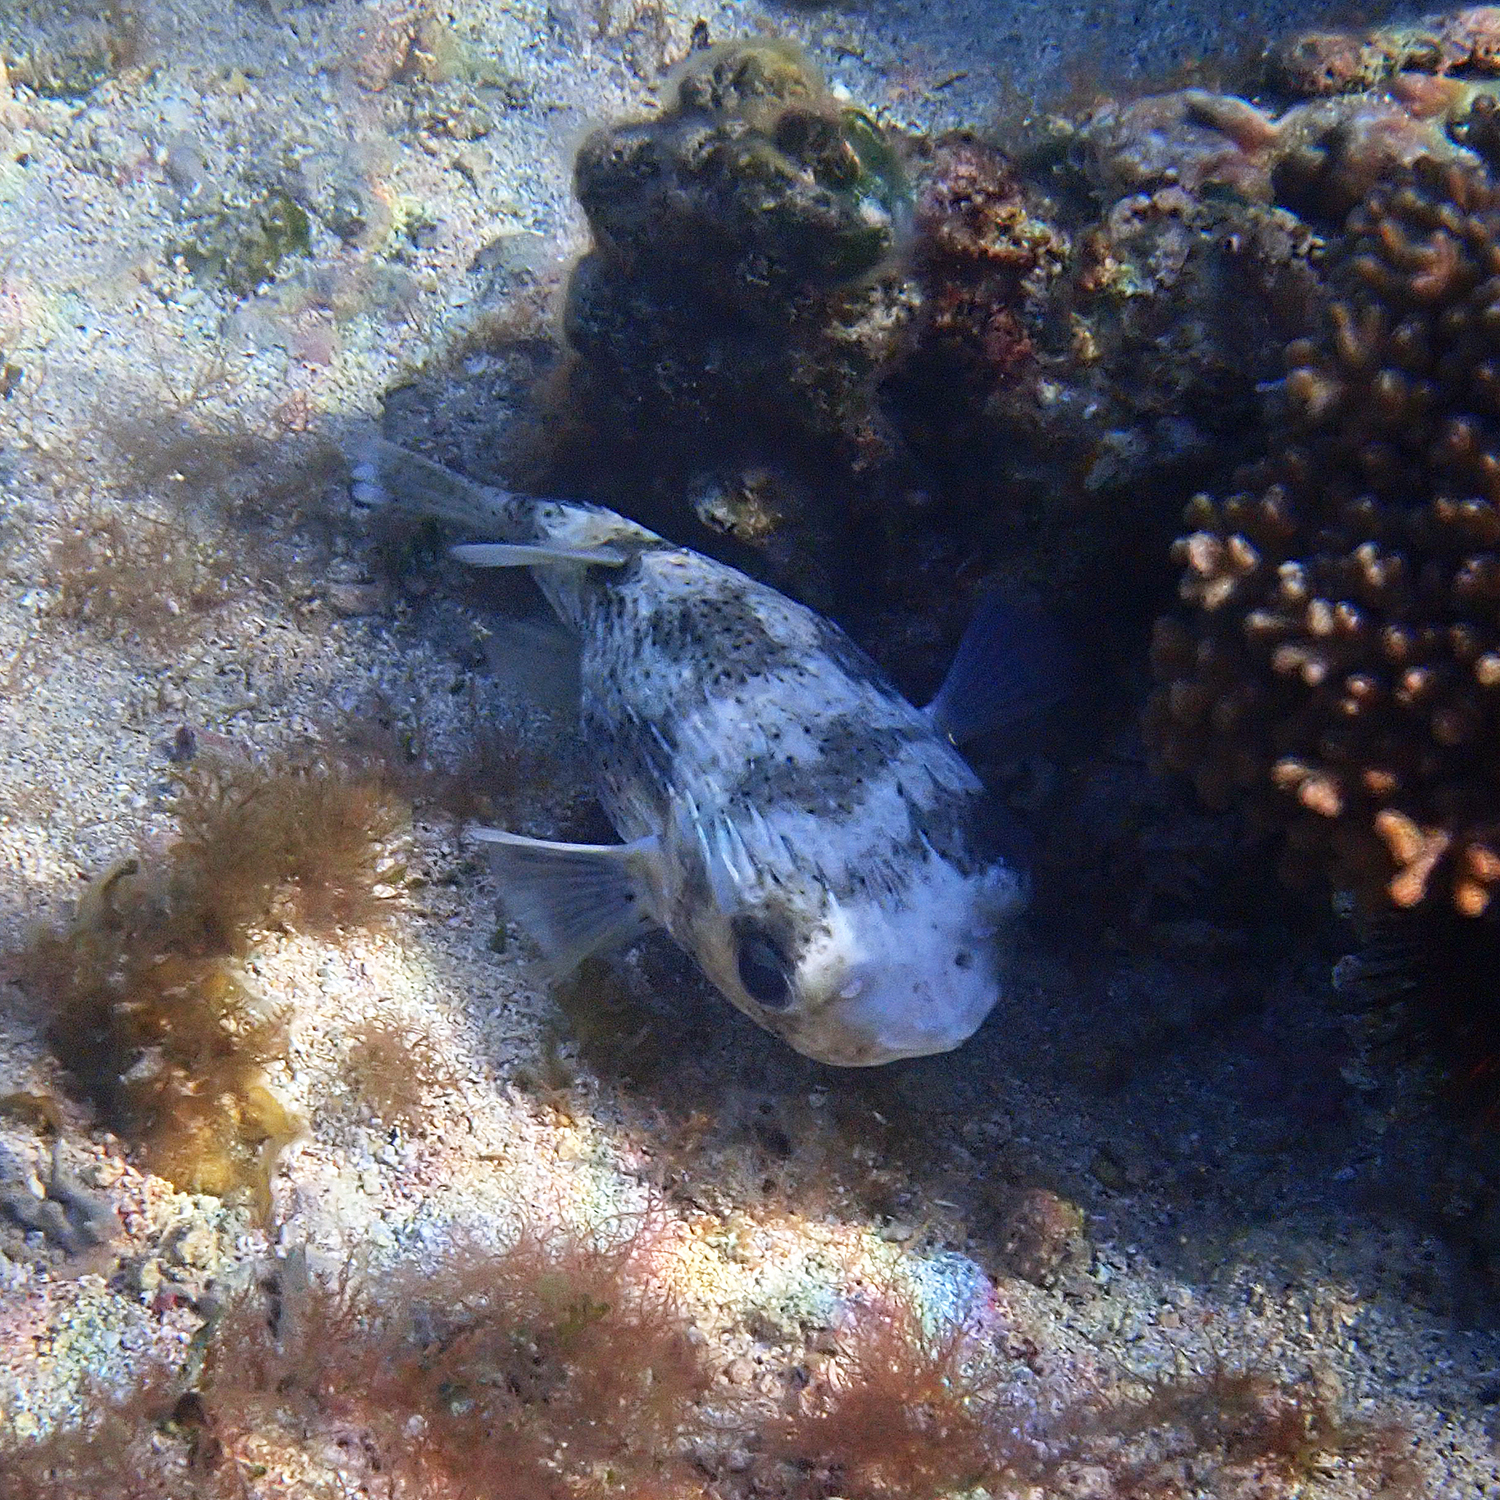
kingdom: Animalia
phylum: Chordata
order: Tetraodontiformes
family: Diodontidae
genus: Diodon
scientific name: Diodon hystrix
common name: Giant porcupinefish
